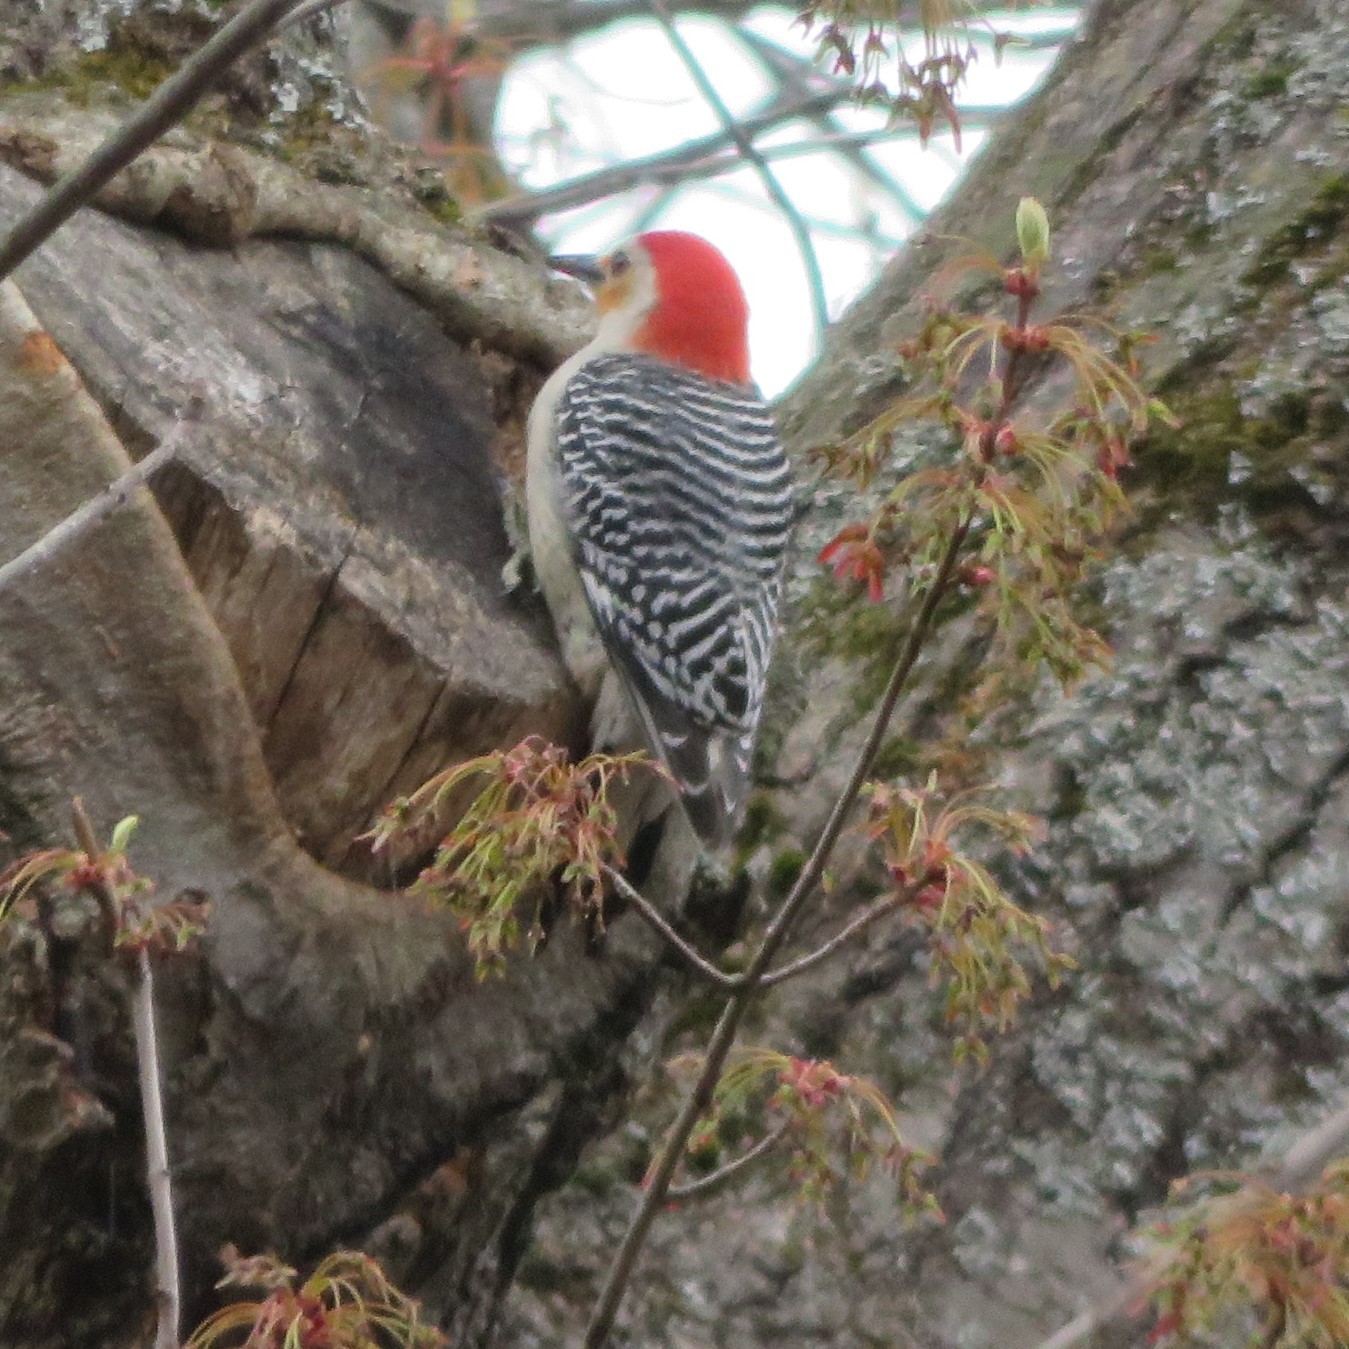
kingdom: Animalia
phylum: Chordata
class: Aves
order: Piciformes
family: Picidae
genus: Melanerpes
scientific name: Melanerpes carolinus
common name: Red-bellied woodpecker
